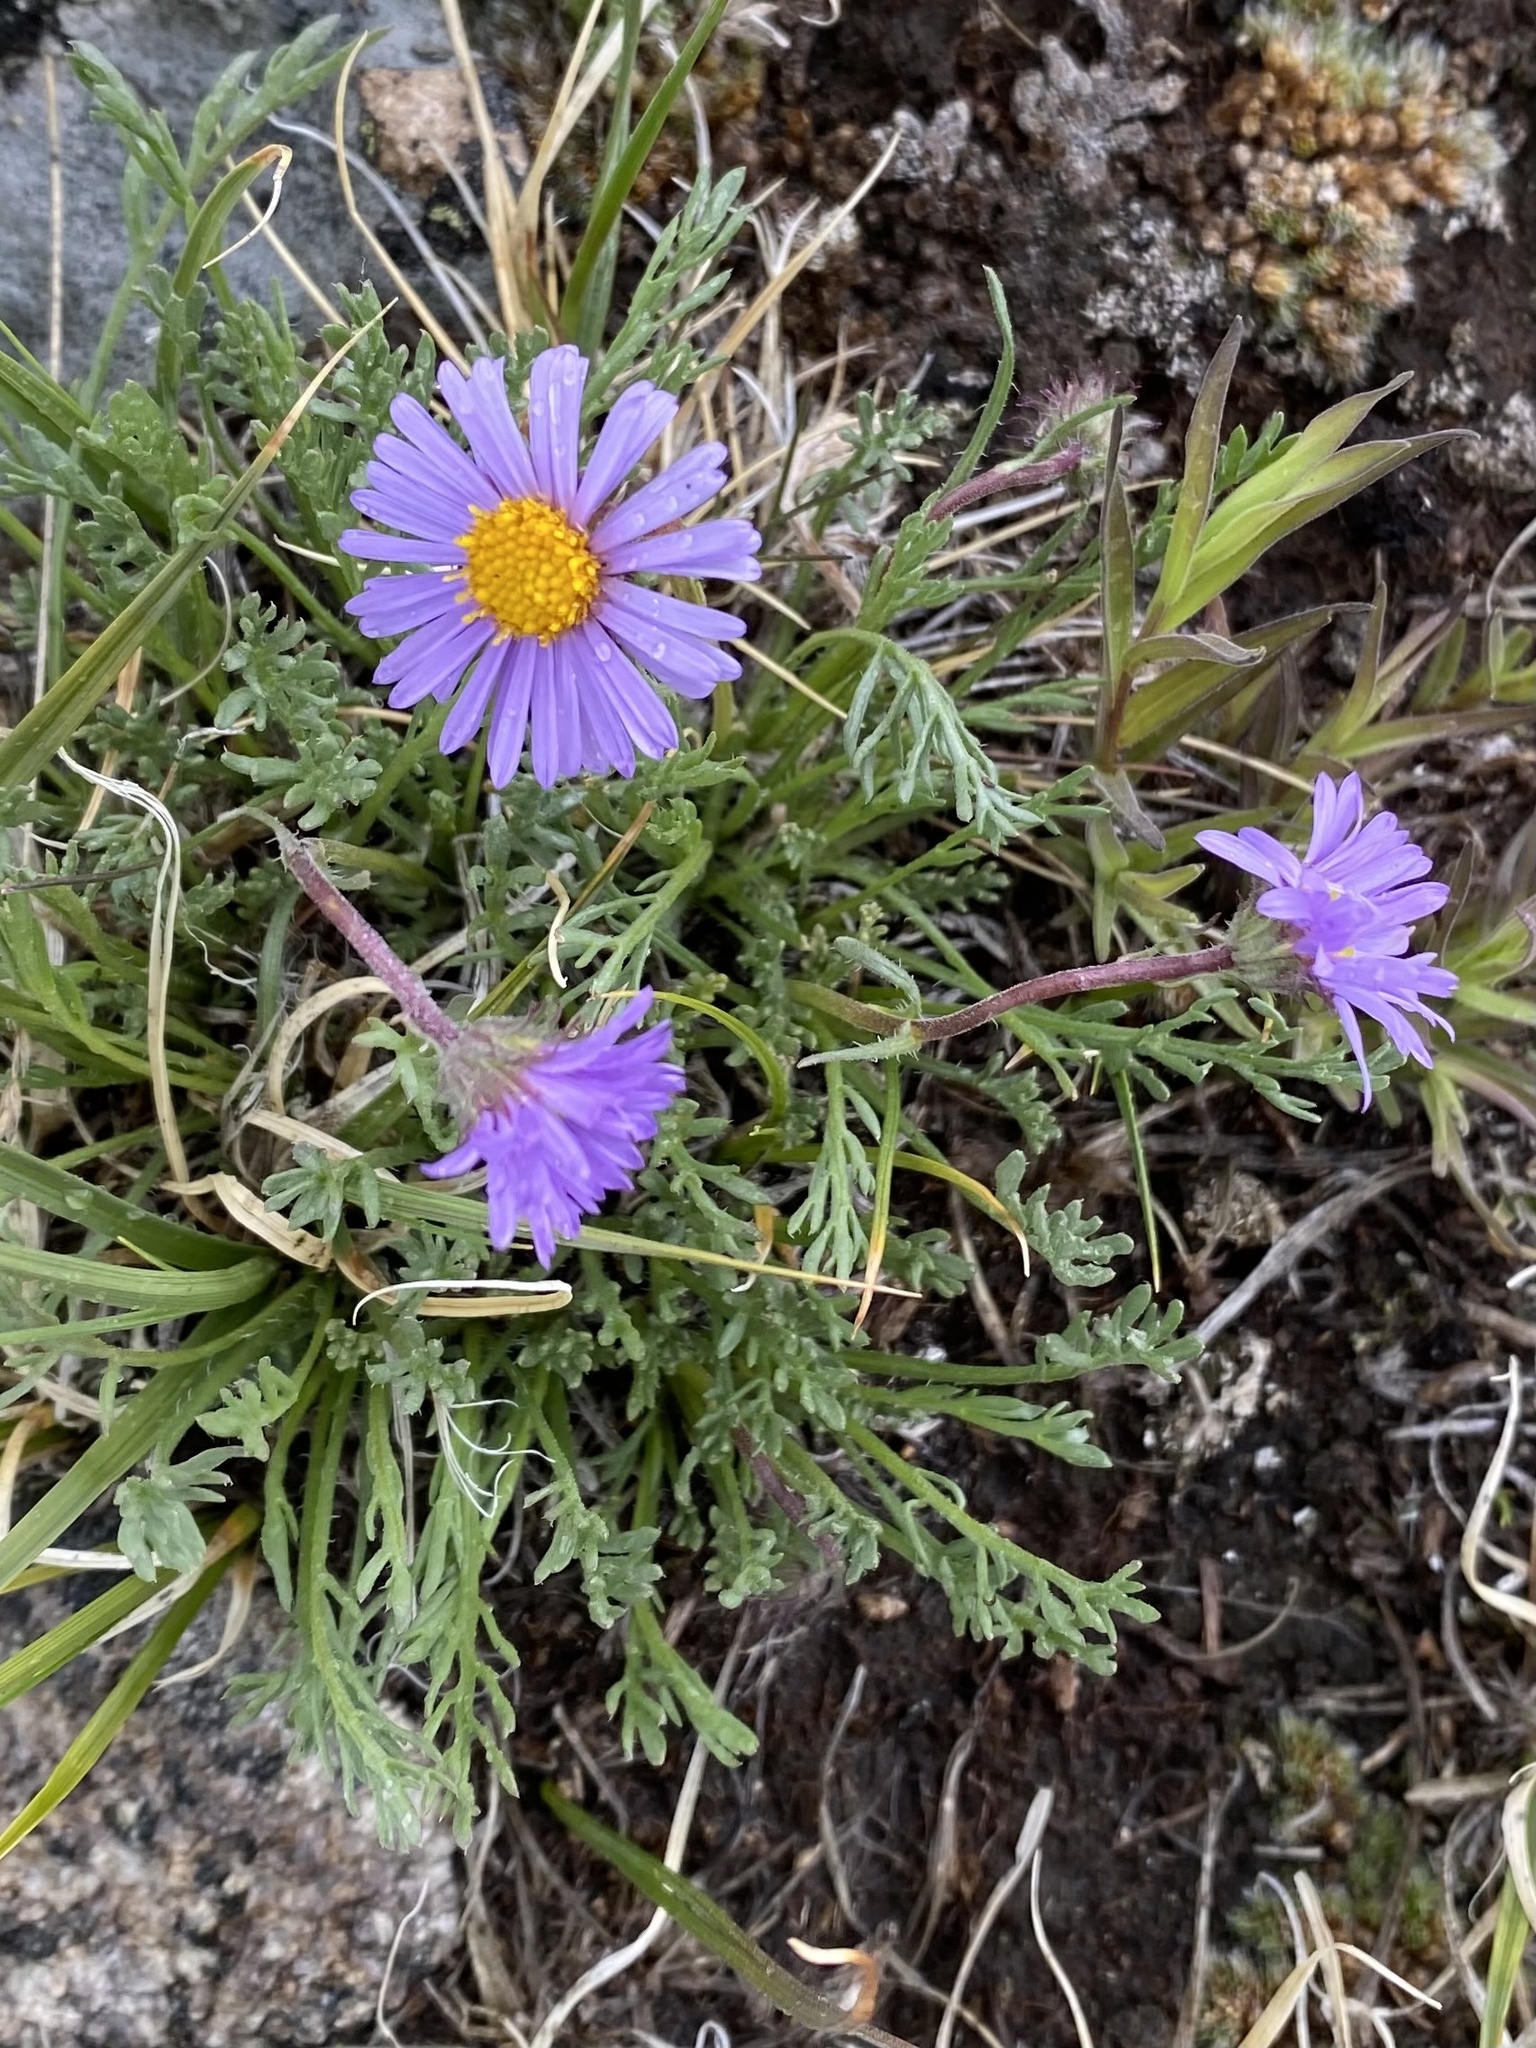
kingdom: Plantae
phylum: Tracheophyta
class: Magnoliopsida
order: Asterales
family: Asteraceae
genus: Erigeron
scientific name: Erigeron pinnatisectus
